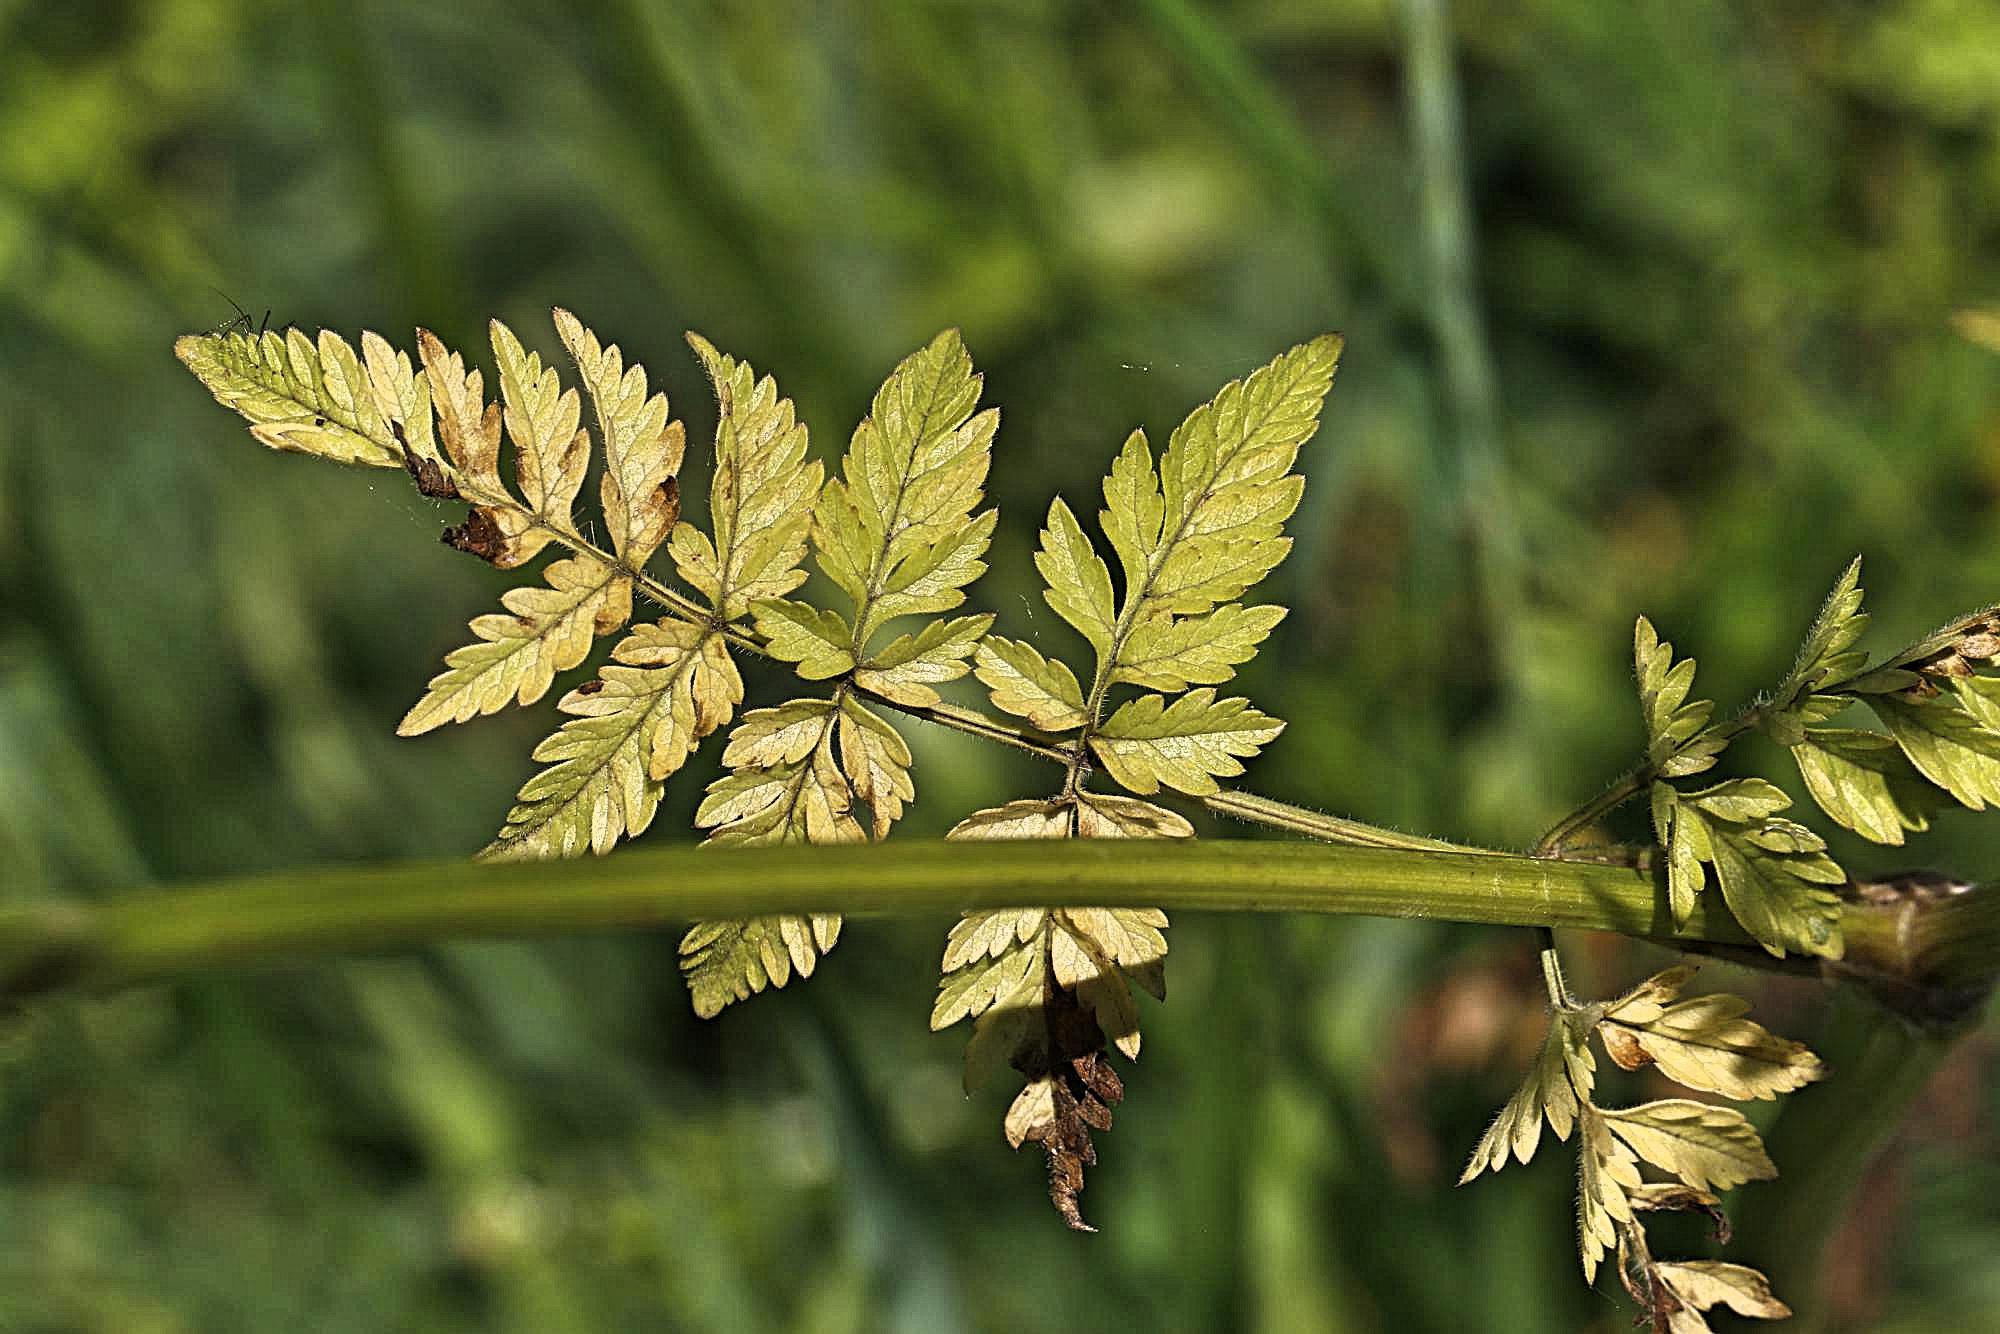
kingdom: Plantae
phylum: Tracheophyta
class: Magnoliopsida
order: Apiales
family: Apiaceae
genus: Anthriscus
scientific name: Anthriscus sylvestris
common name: Cow parsley
